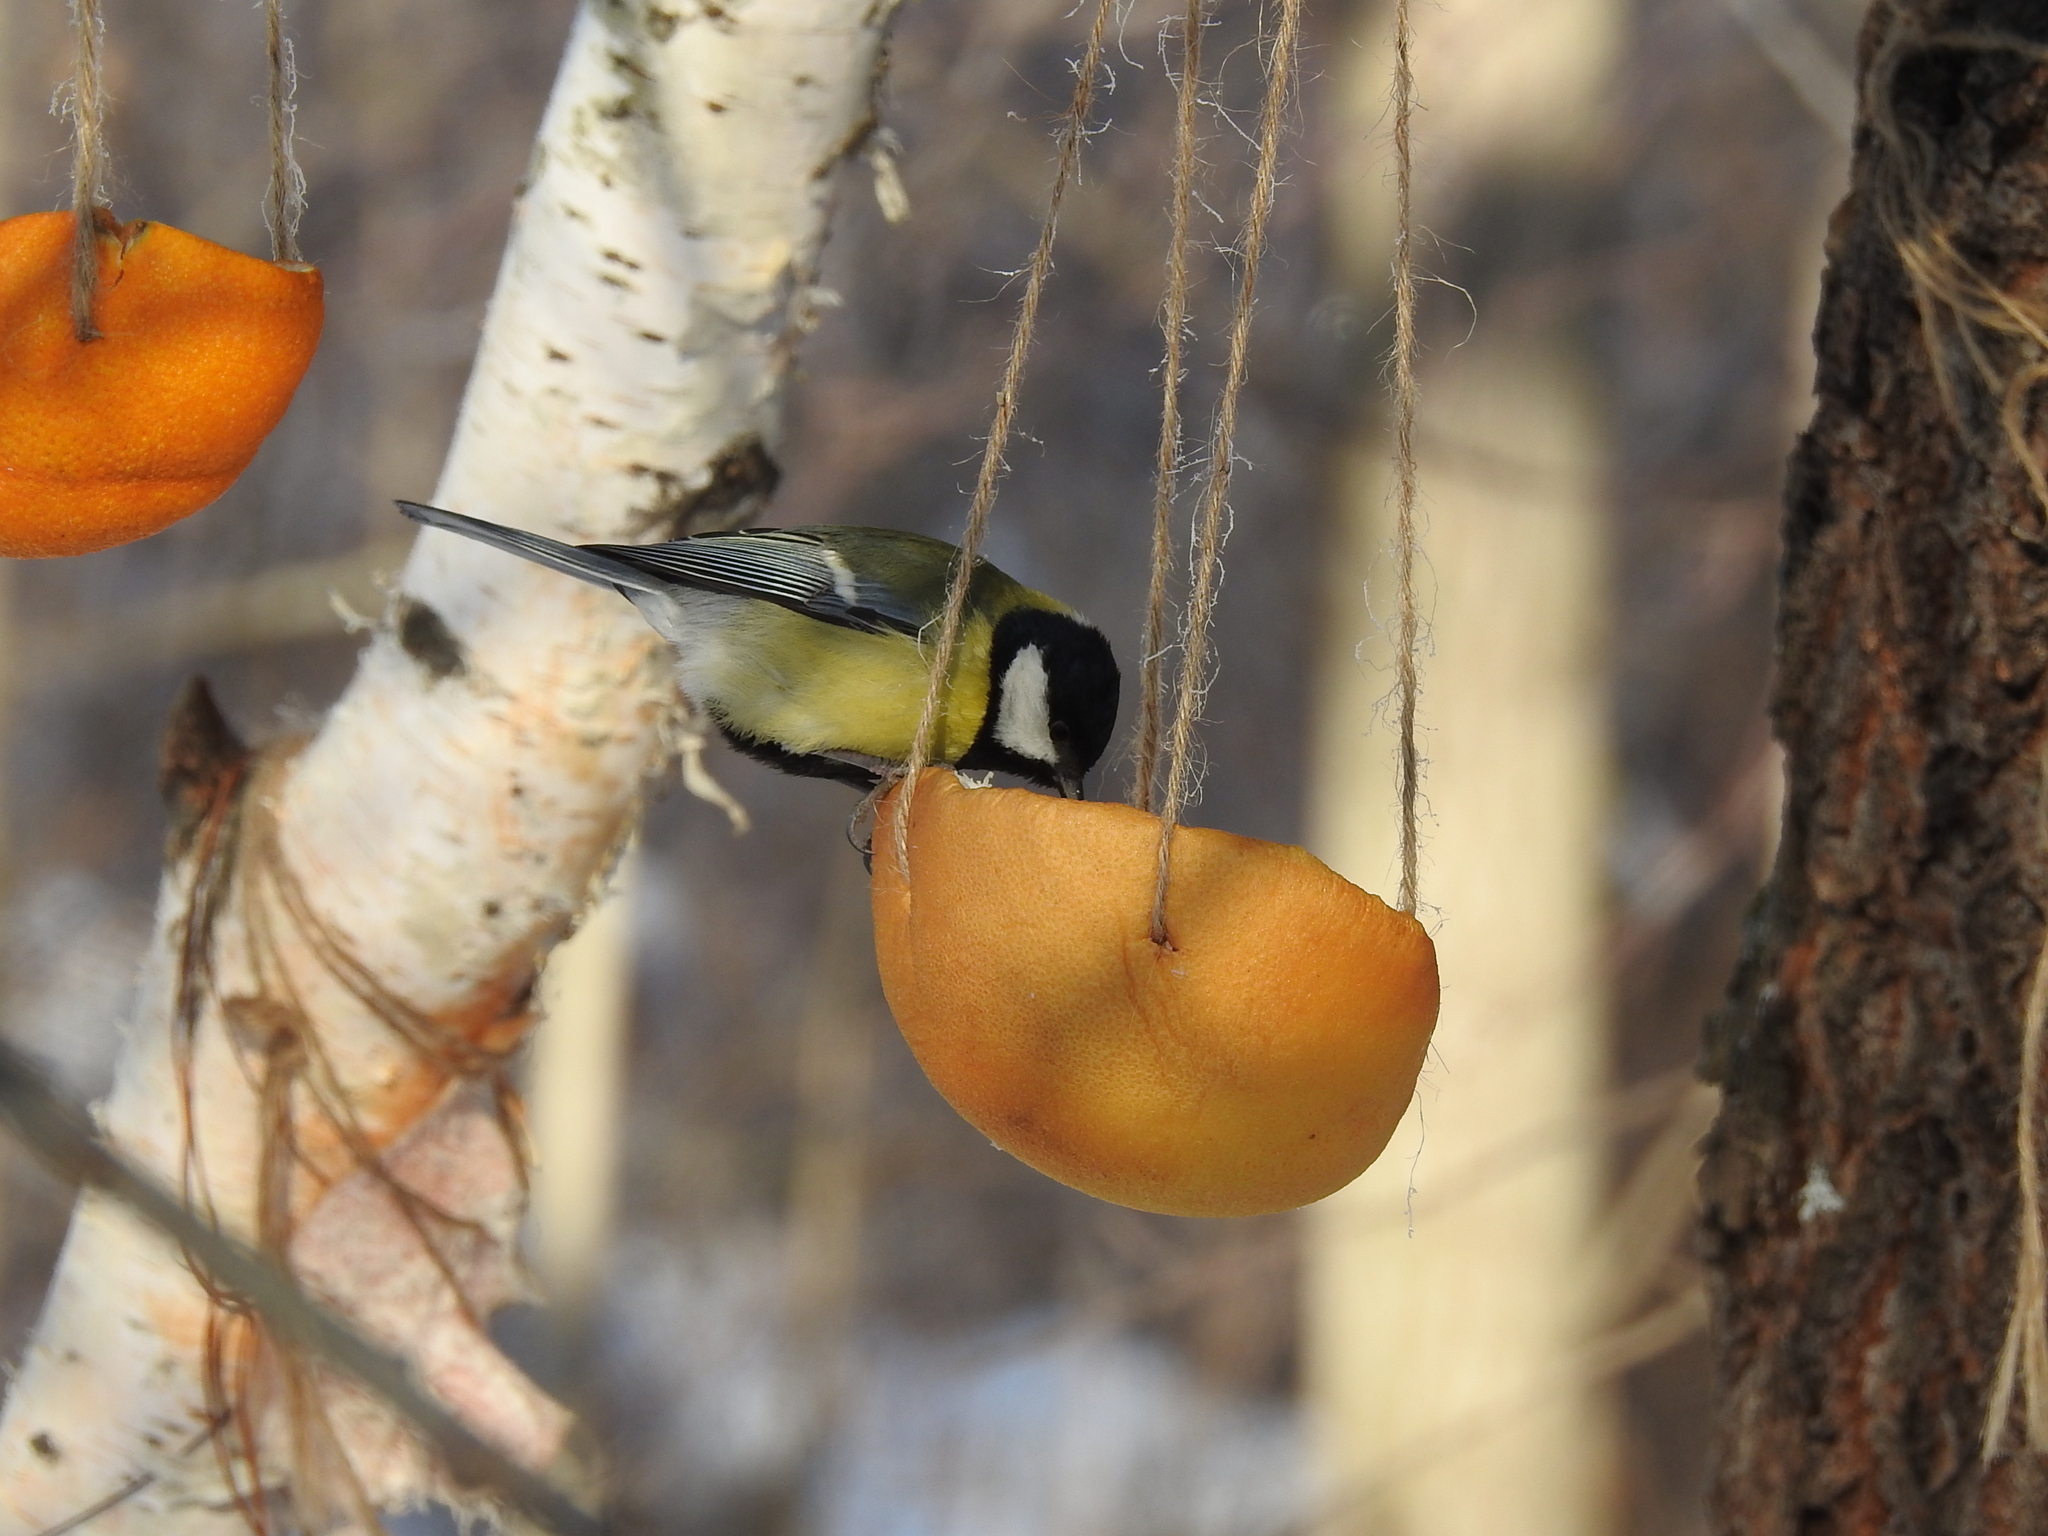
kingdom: Animalia
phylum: Chordata
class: Aves
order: Passeriformes
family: Paridae
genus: Parus
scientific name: Parus major
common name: Great tit
